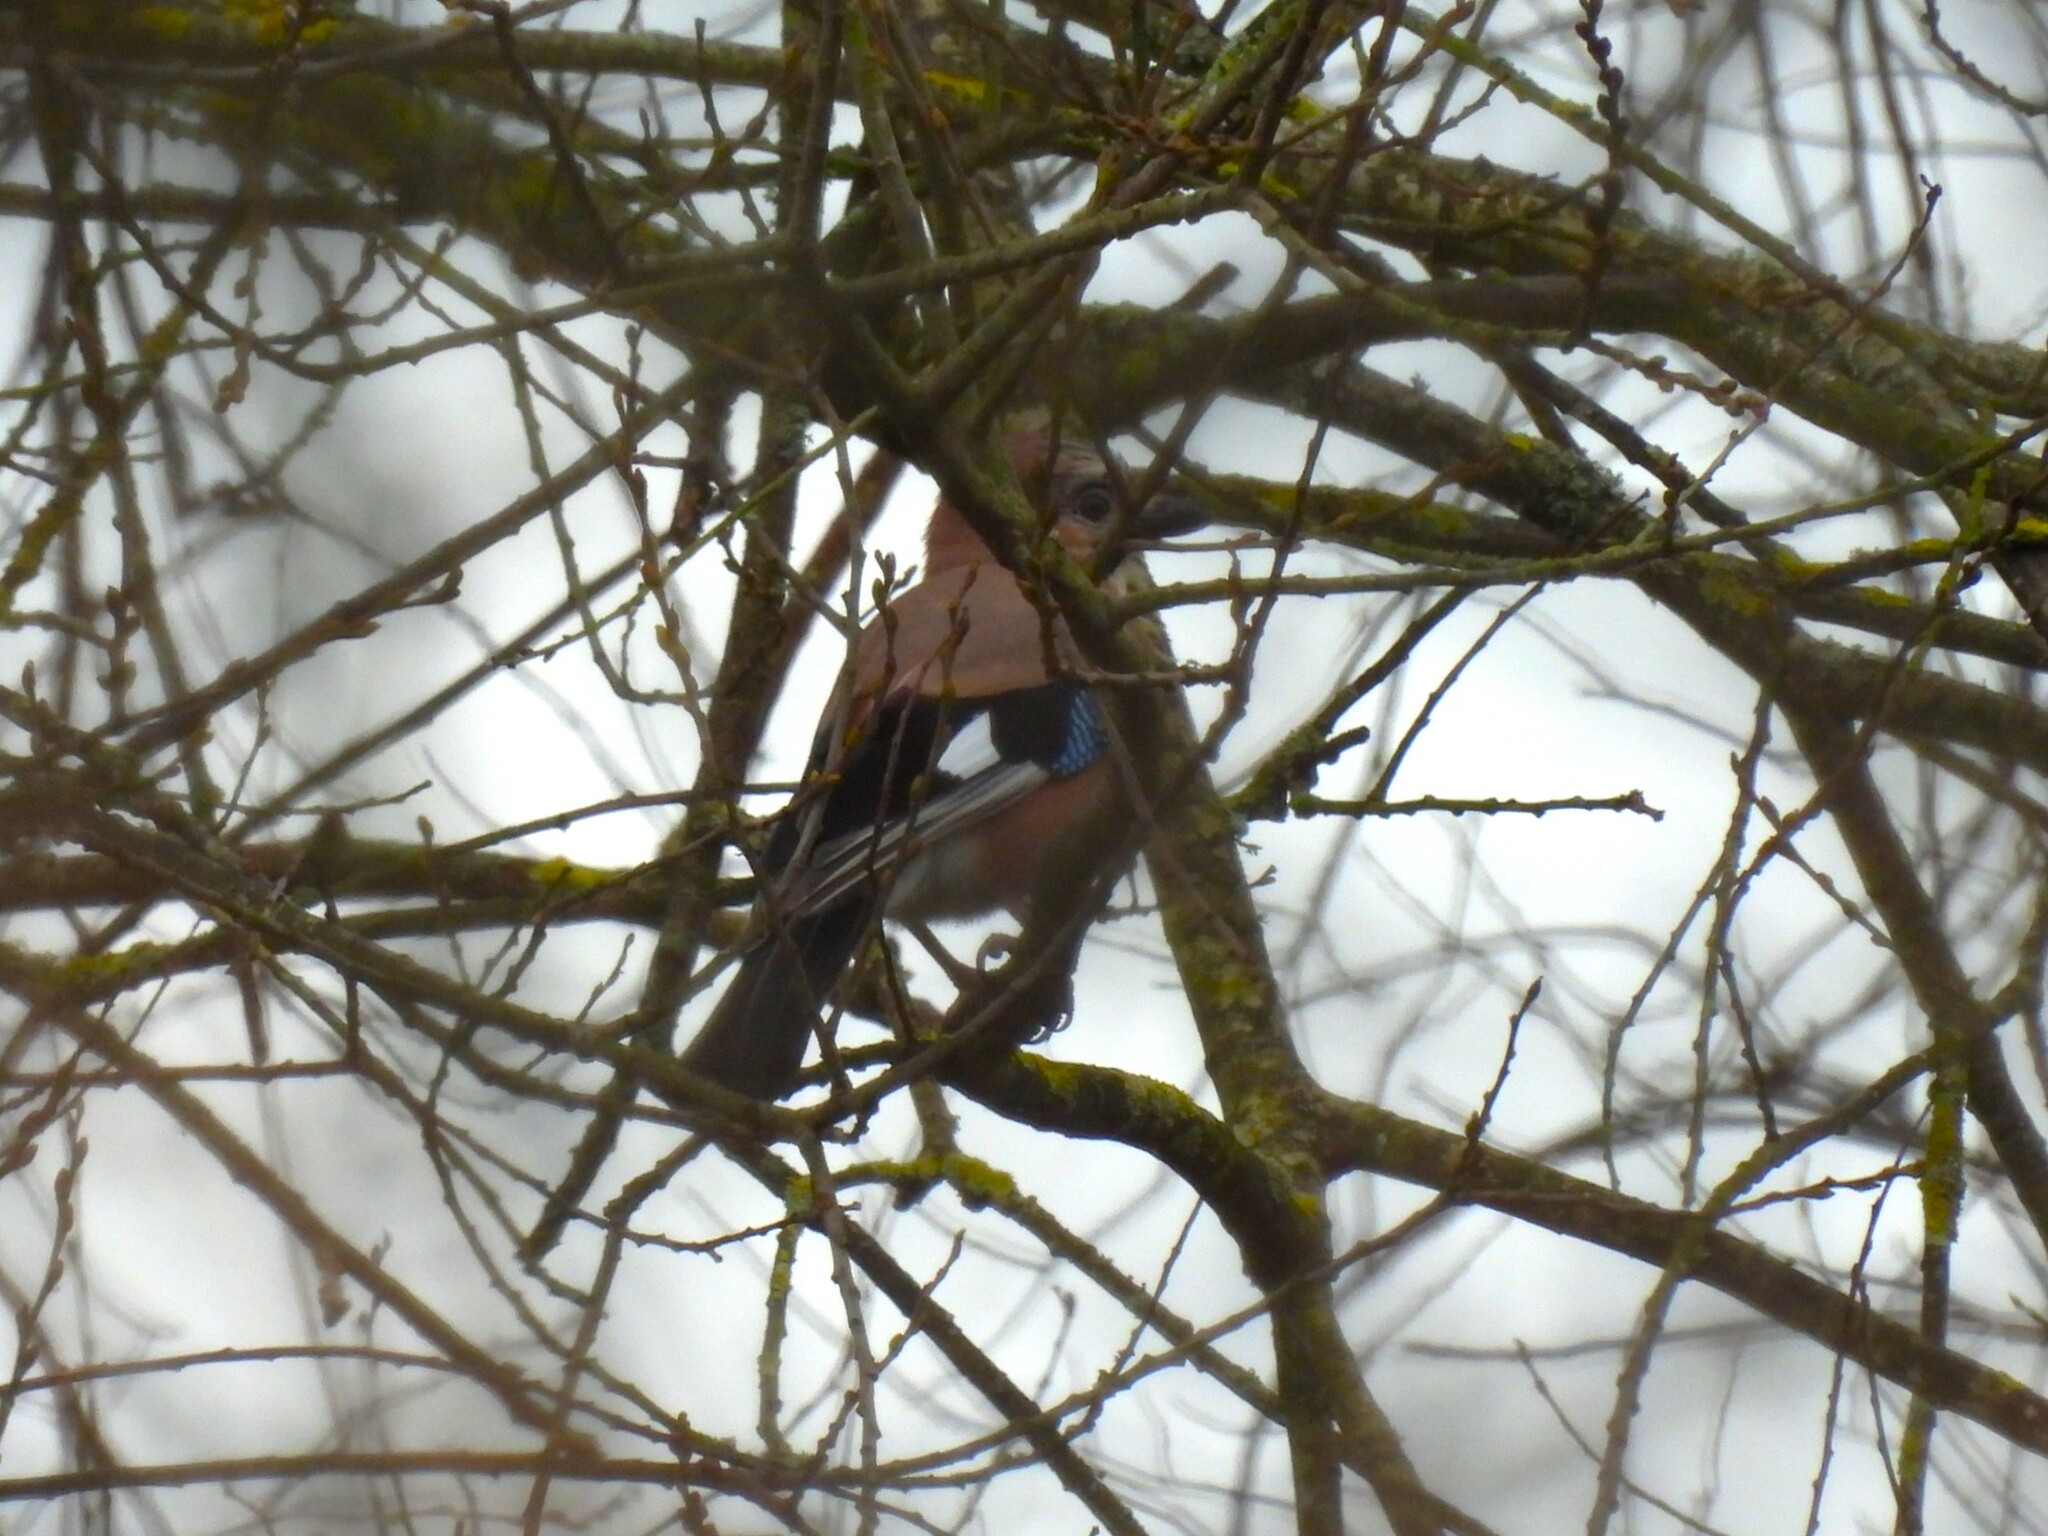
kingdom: Animalia
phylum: Chordata
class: Aves
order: Passeriformes
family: Corvidae
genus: Garrulus
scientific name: Garrulus glandarius
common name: Eurasian jay
